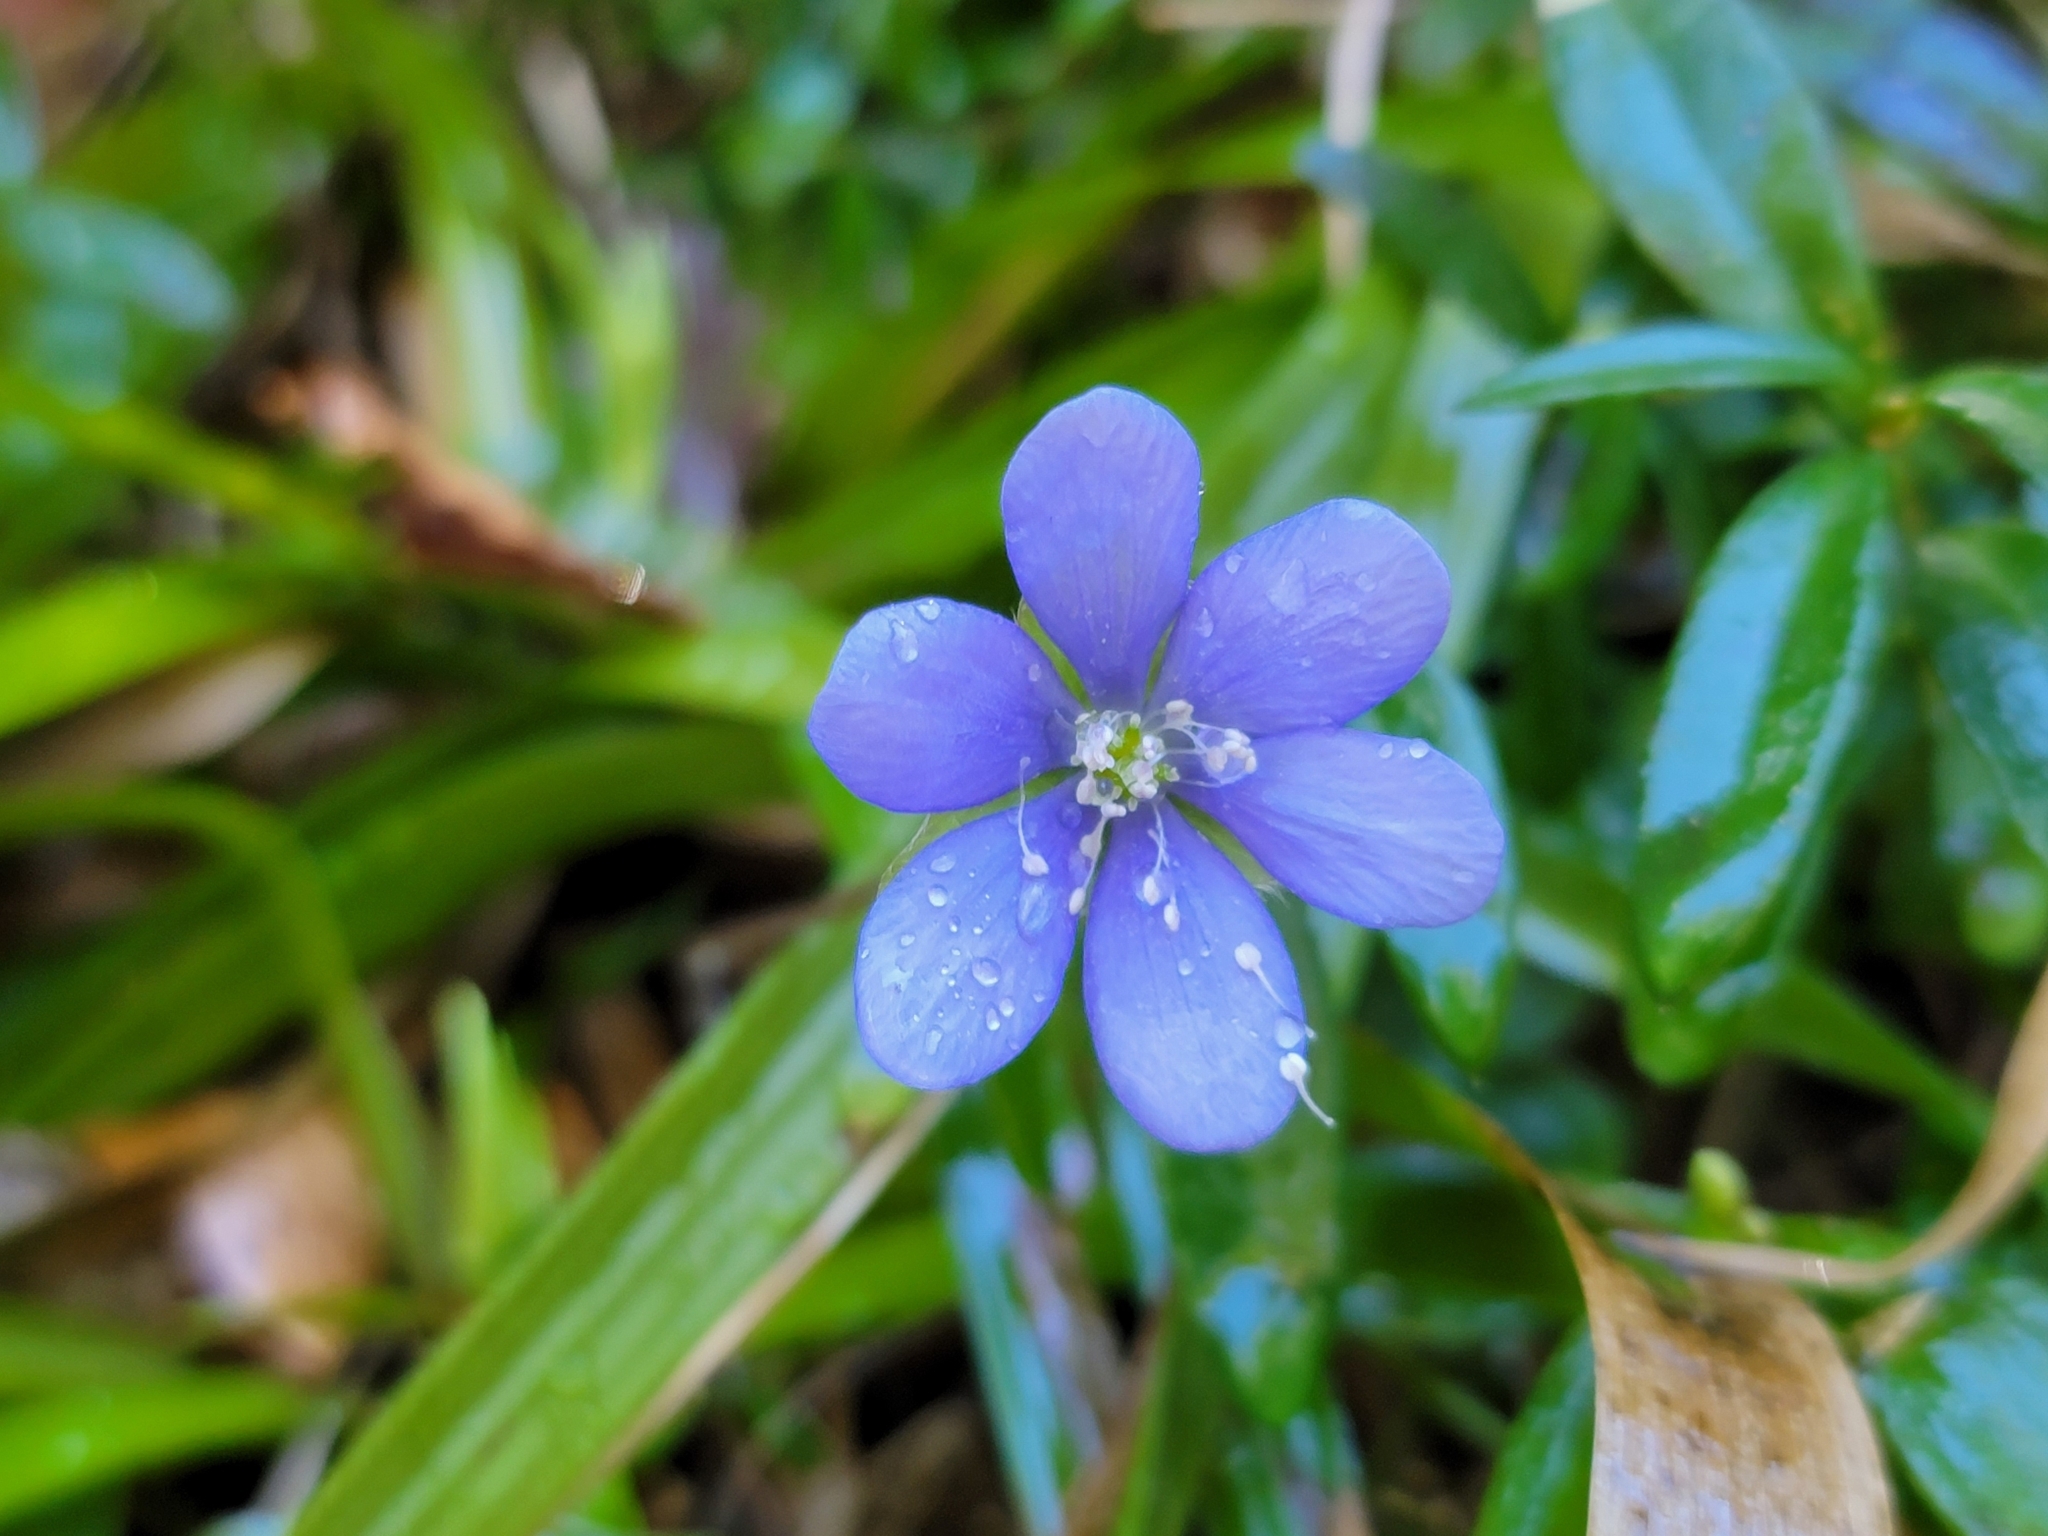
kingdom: Plantae
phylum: Tracheophyta
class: Magnoliopsida
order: Ranunculales
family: Ranunculaceae
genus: Hepatica
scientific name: Hepatica nobilis
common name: Liverleaf
